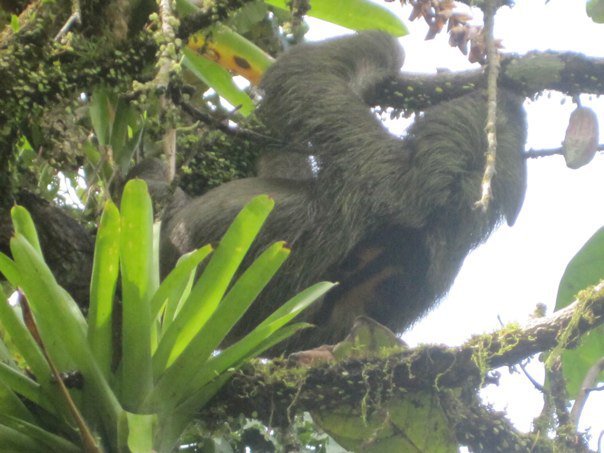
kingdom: Animalia
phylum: Chordata
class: Mammalia
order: Pilosa
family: Bradypodidae
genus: Bradypus
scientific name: Bradypus variegatus
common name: Brown-throated three-toed sloth
